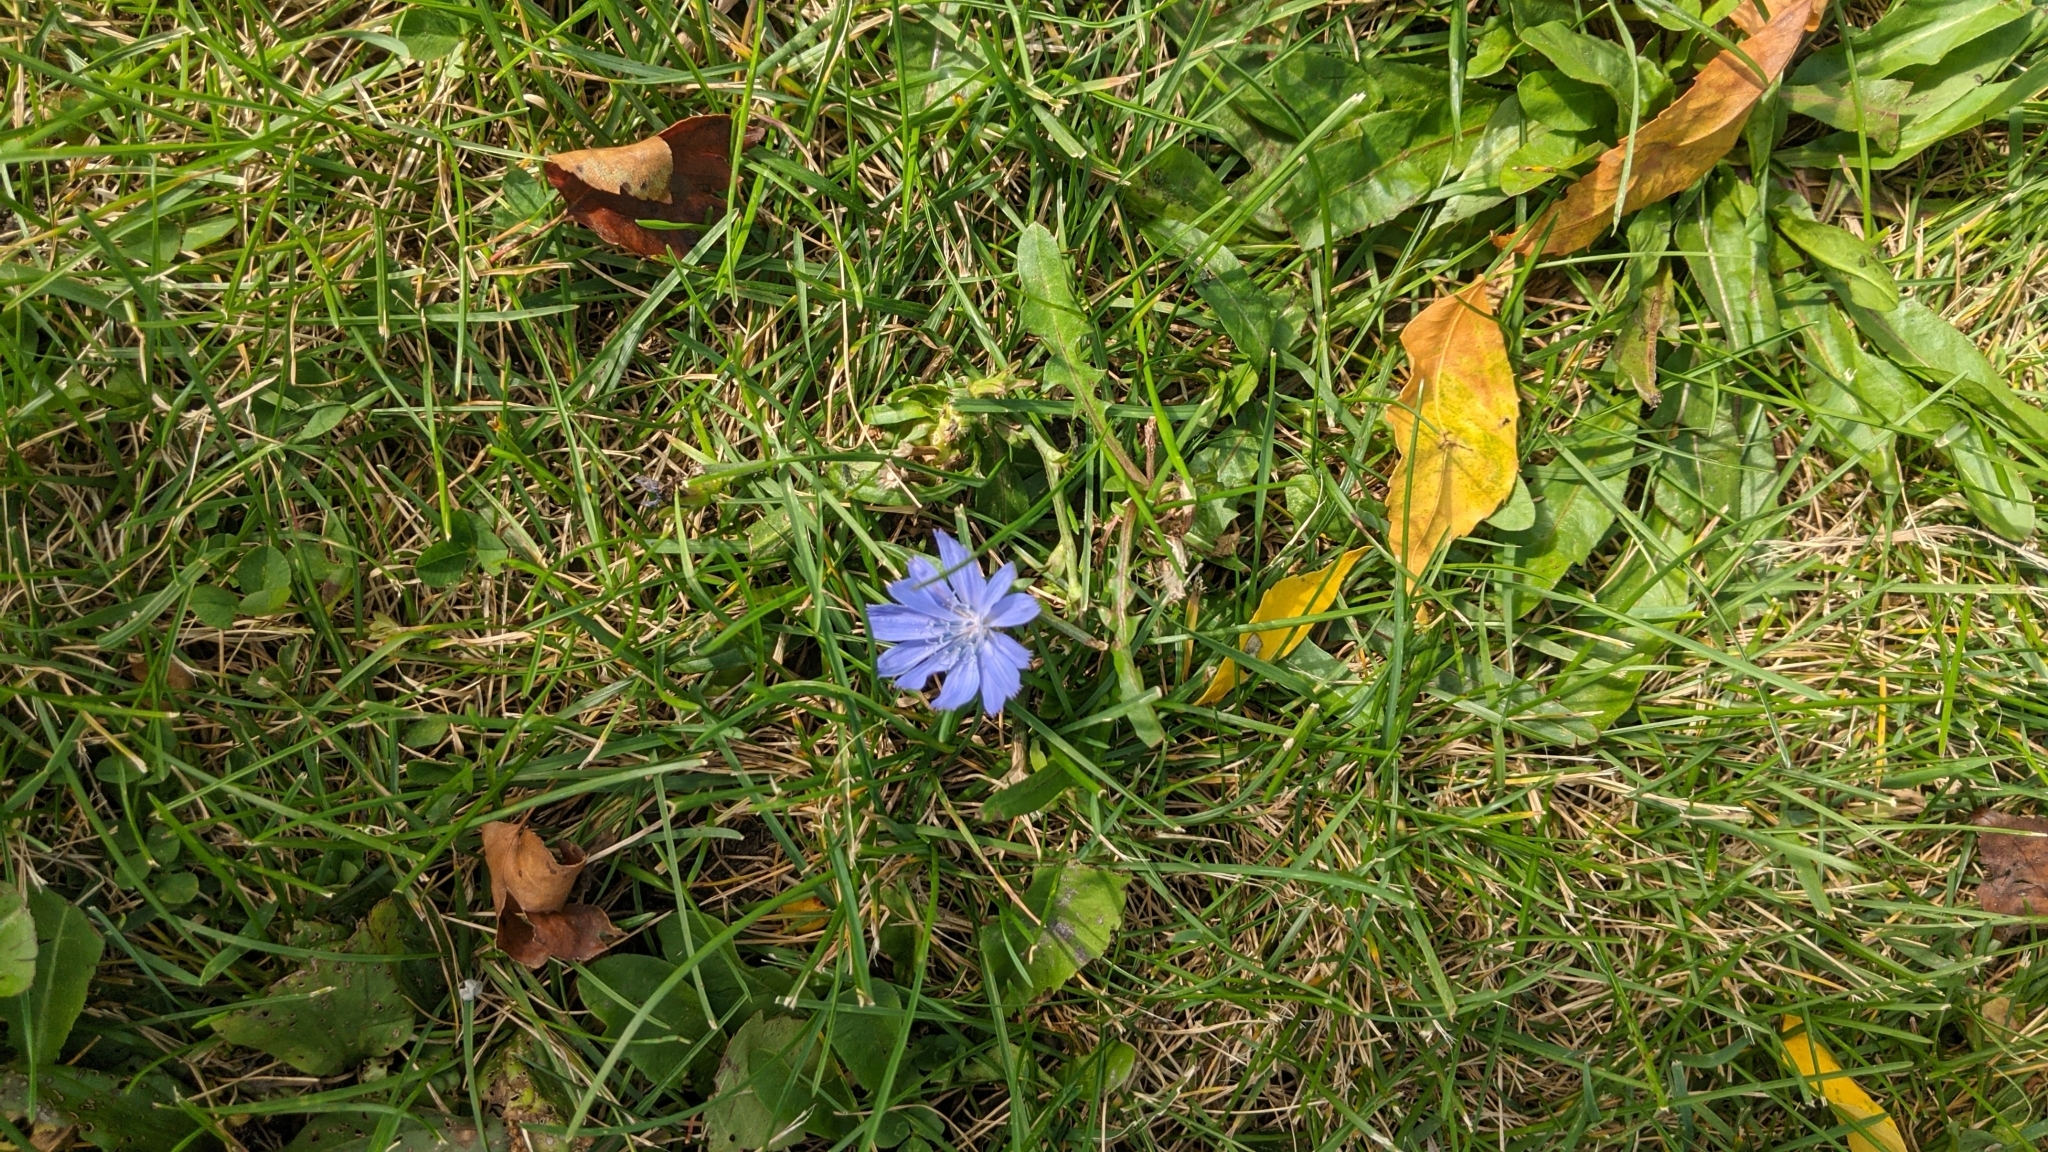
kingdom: Plantae
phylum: Tracheophyta
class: Magnoliopsida
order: Asterales
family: Asteraceae
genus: Cichorium
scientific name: Cichorium intybus
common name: Chicory
